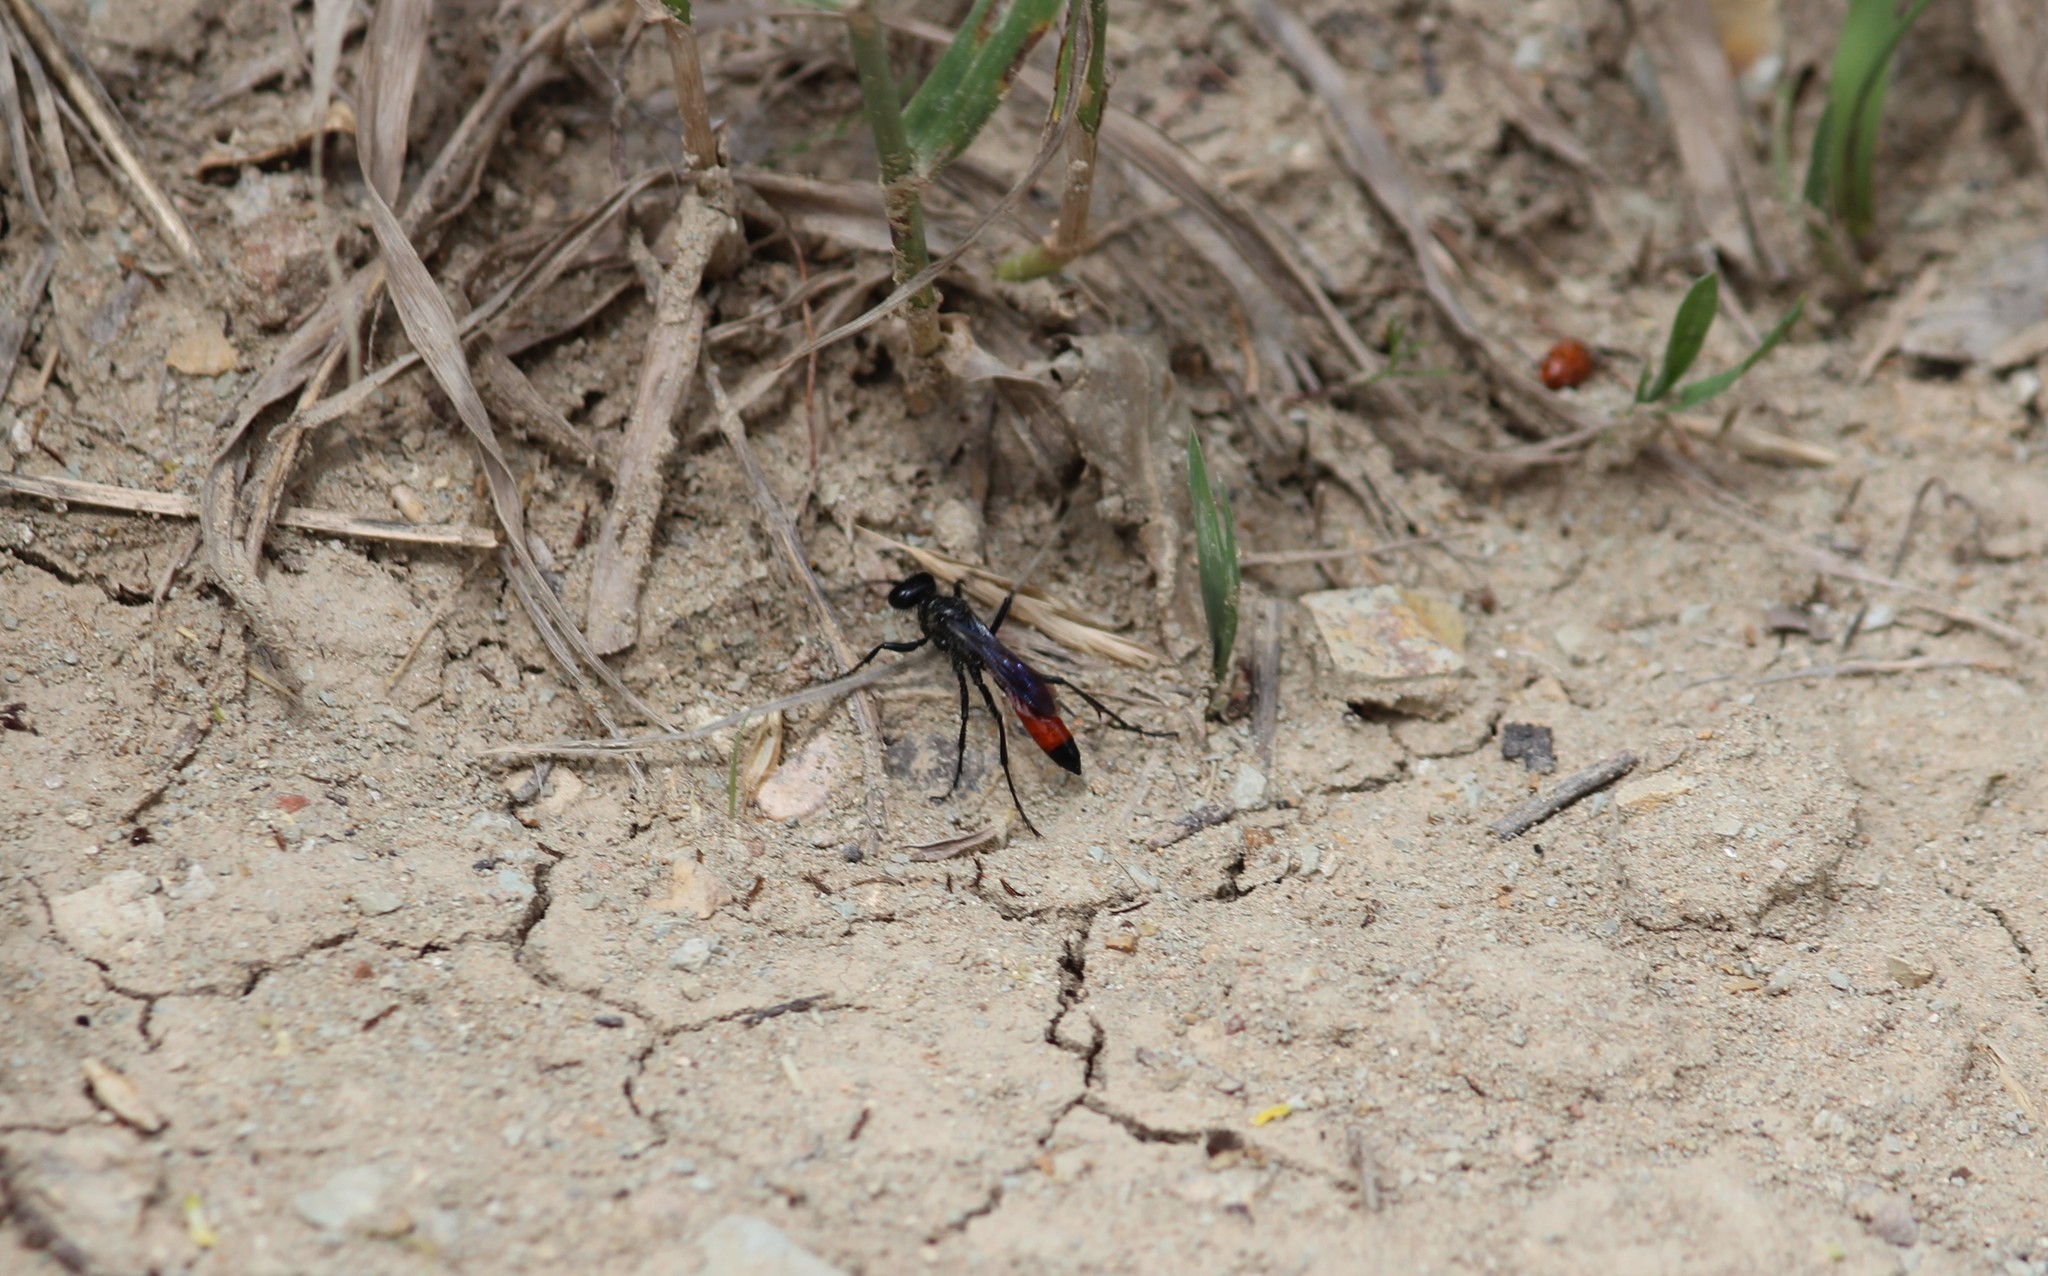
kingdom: Animalia
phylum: Arthropoda
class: Insecta
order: Hymenoptera
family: Sphecidae
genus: Podalonia
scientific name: Podalonia
